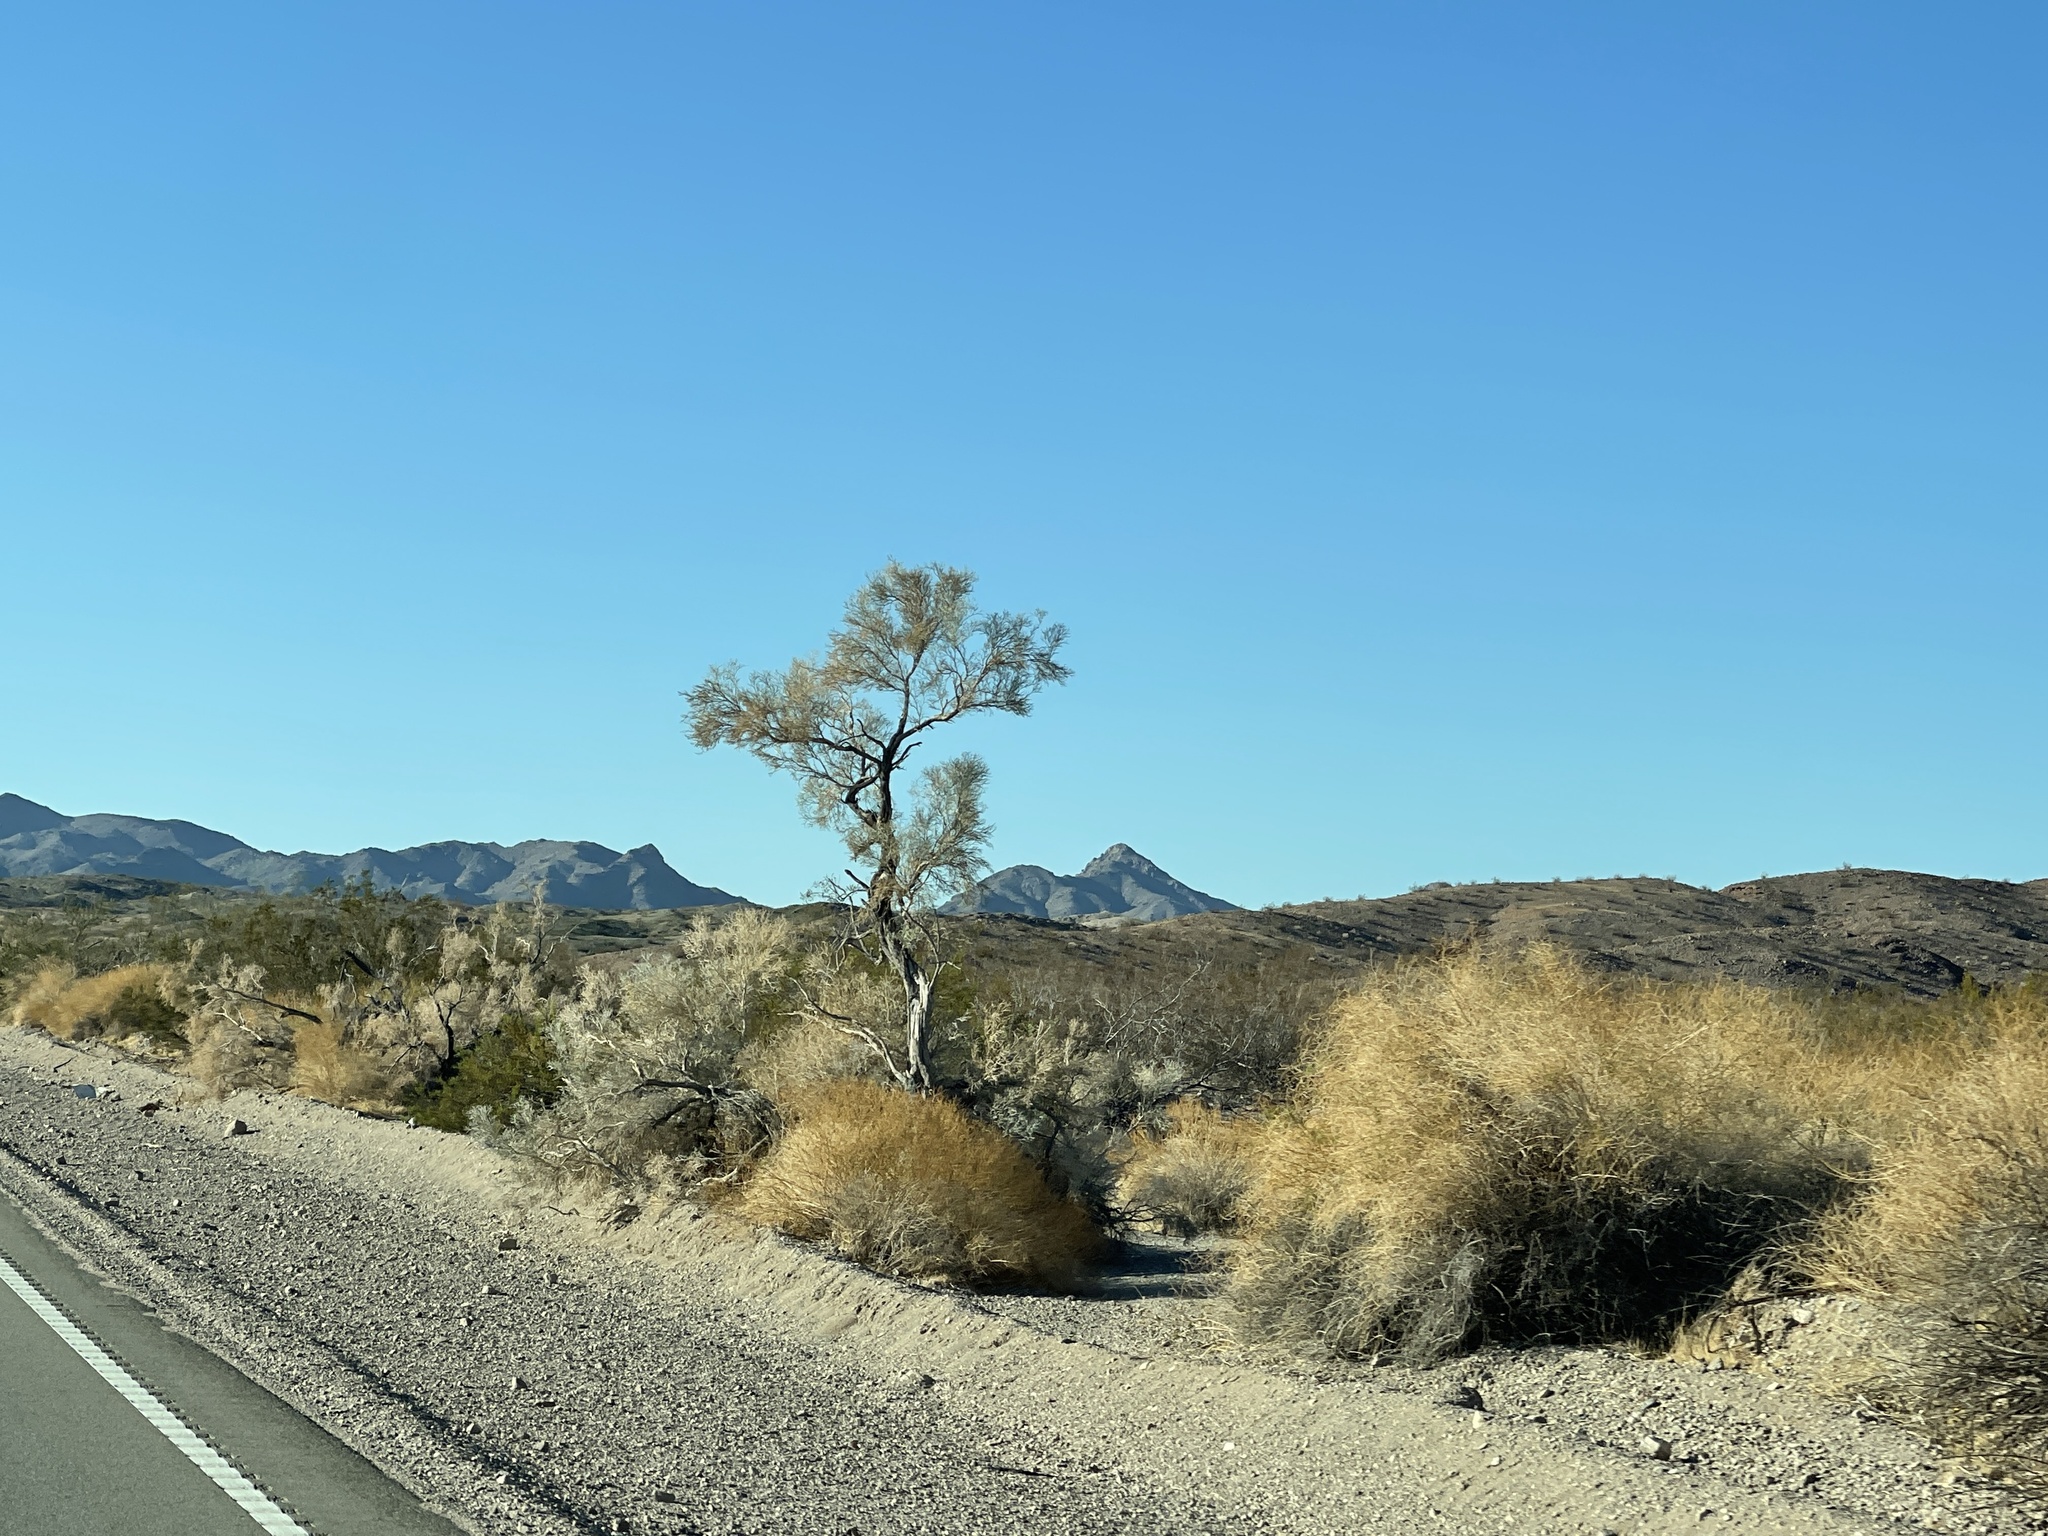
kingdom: Plantae
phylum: Tracheophyta
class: Magnoliopsida
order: Fabales
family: Fabaceae
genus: Psorothamnus
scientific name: Psorothamnus spinosus
